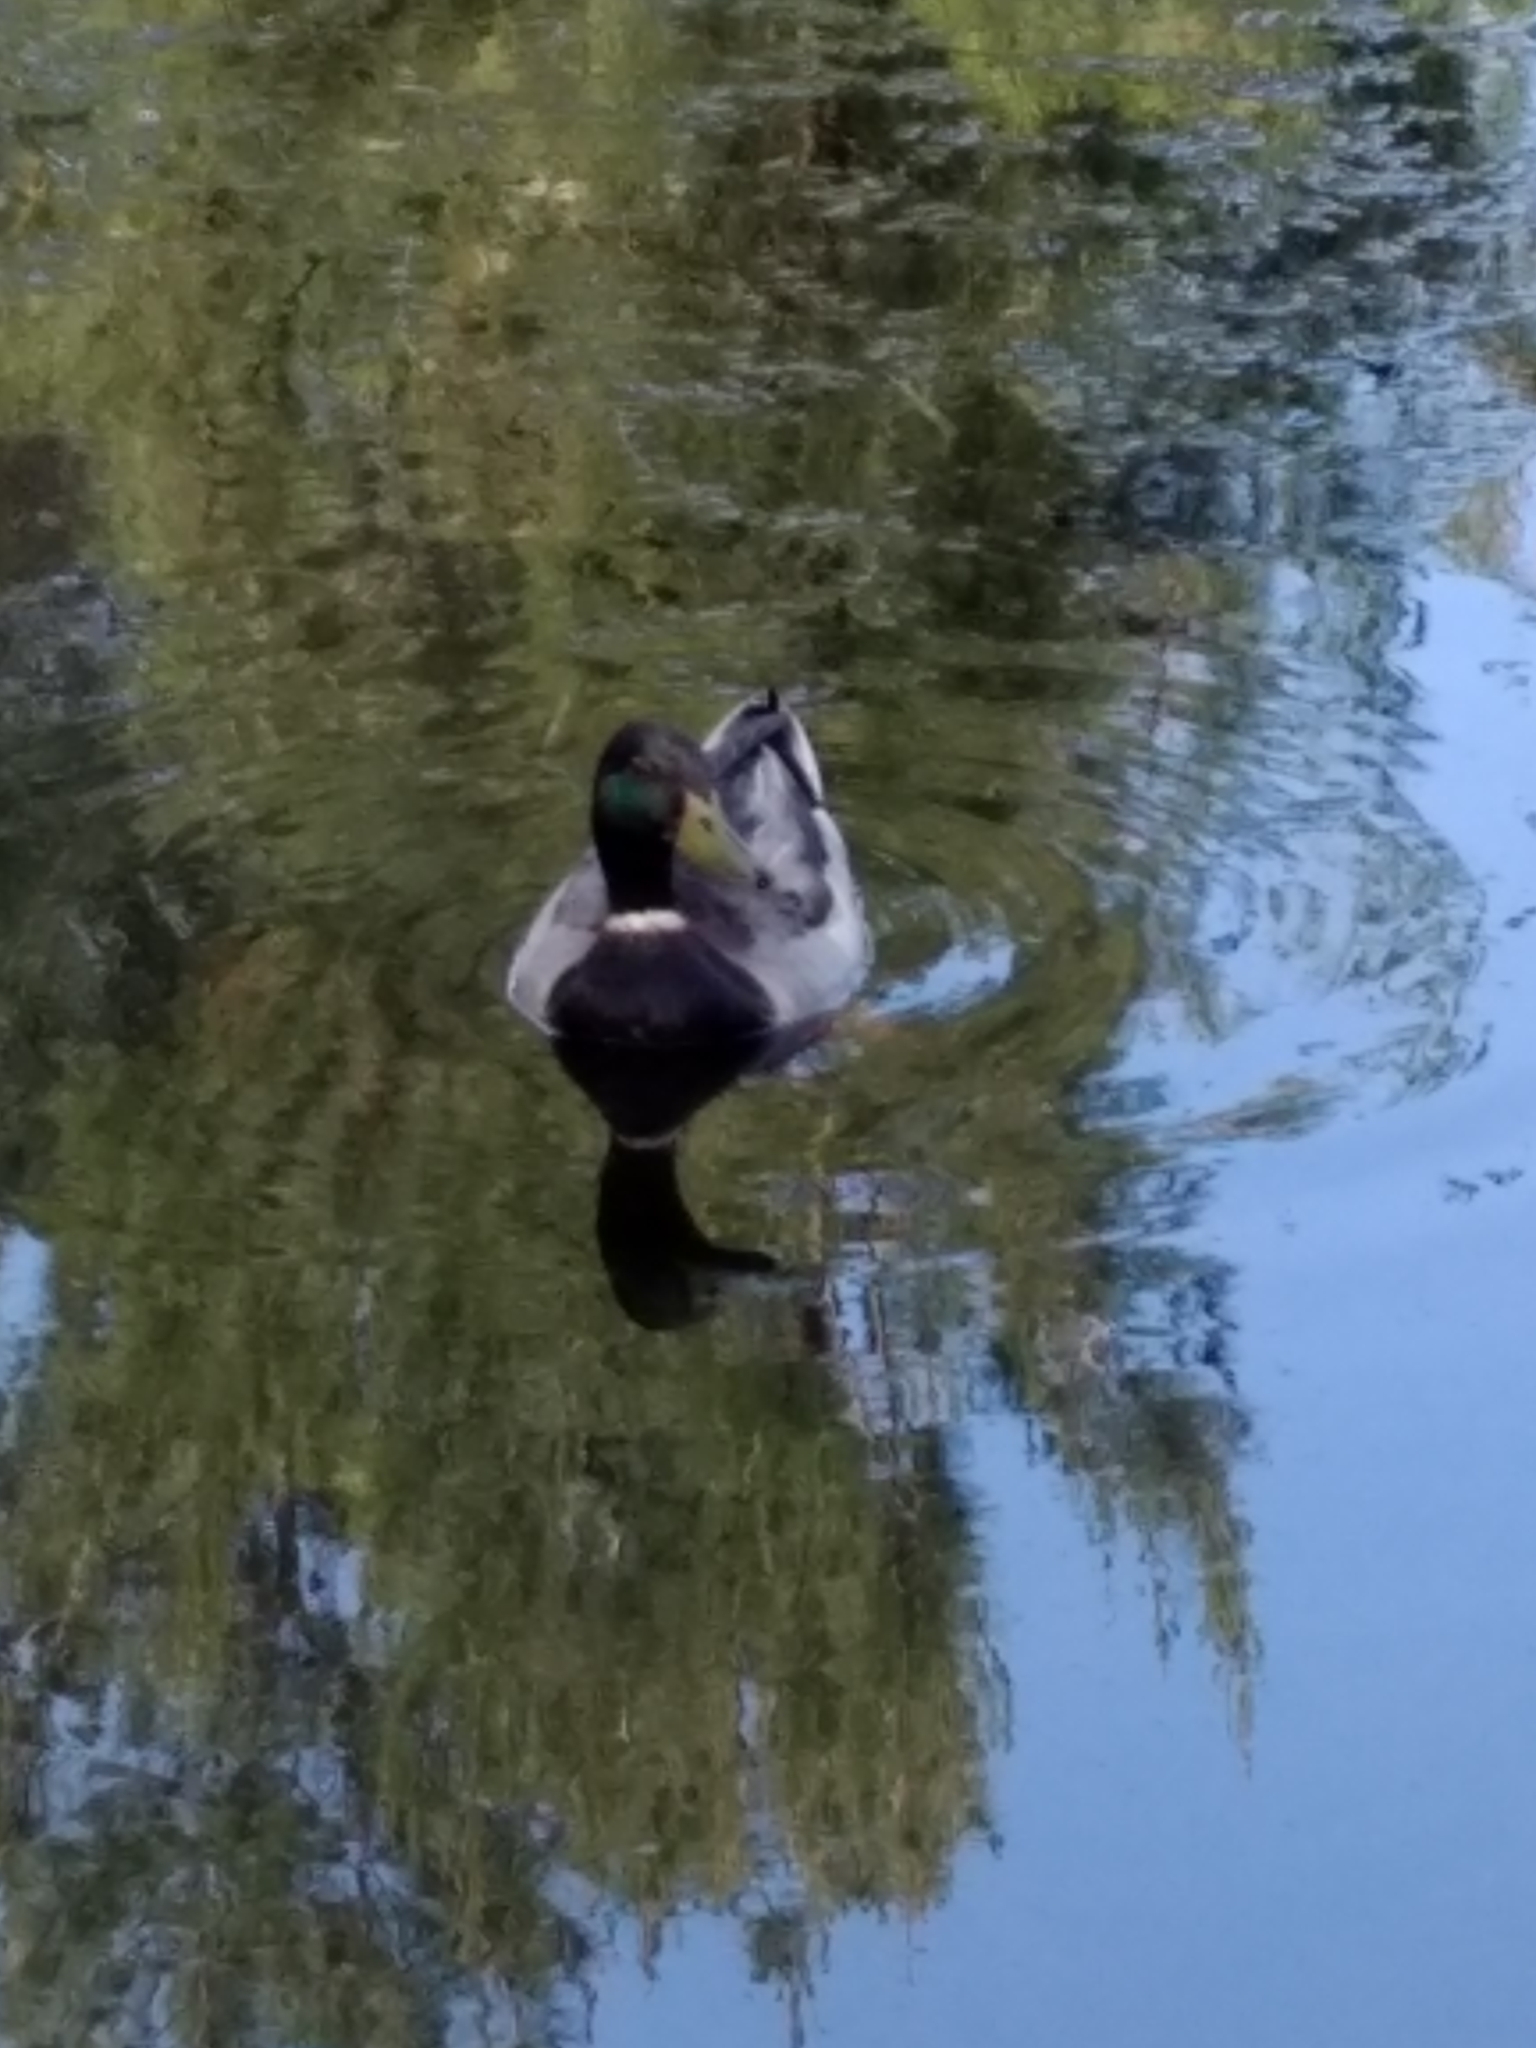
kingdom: Animalia
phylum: Chordata
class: Aves
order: Anseriformes
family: Anatidae
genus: Anas
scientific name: Anas platyrhynchos
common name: Mallard
